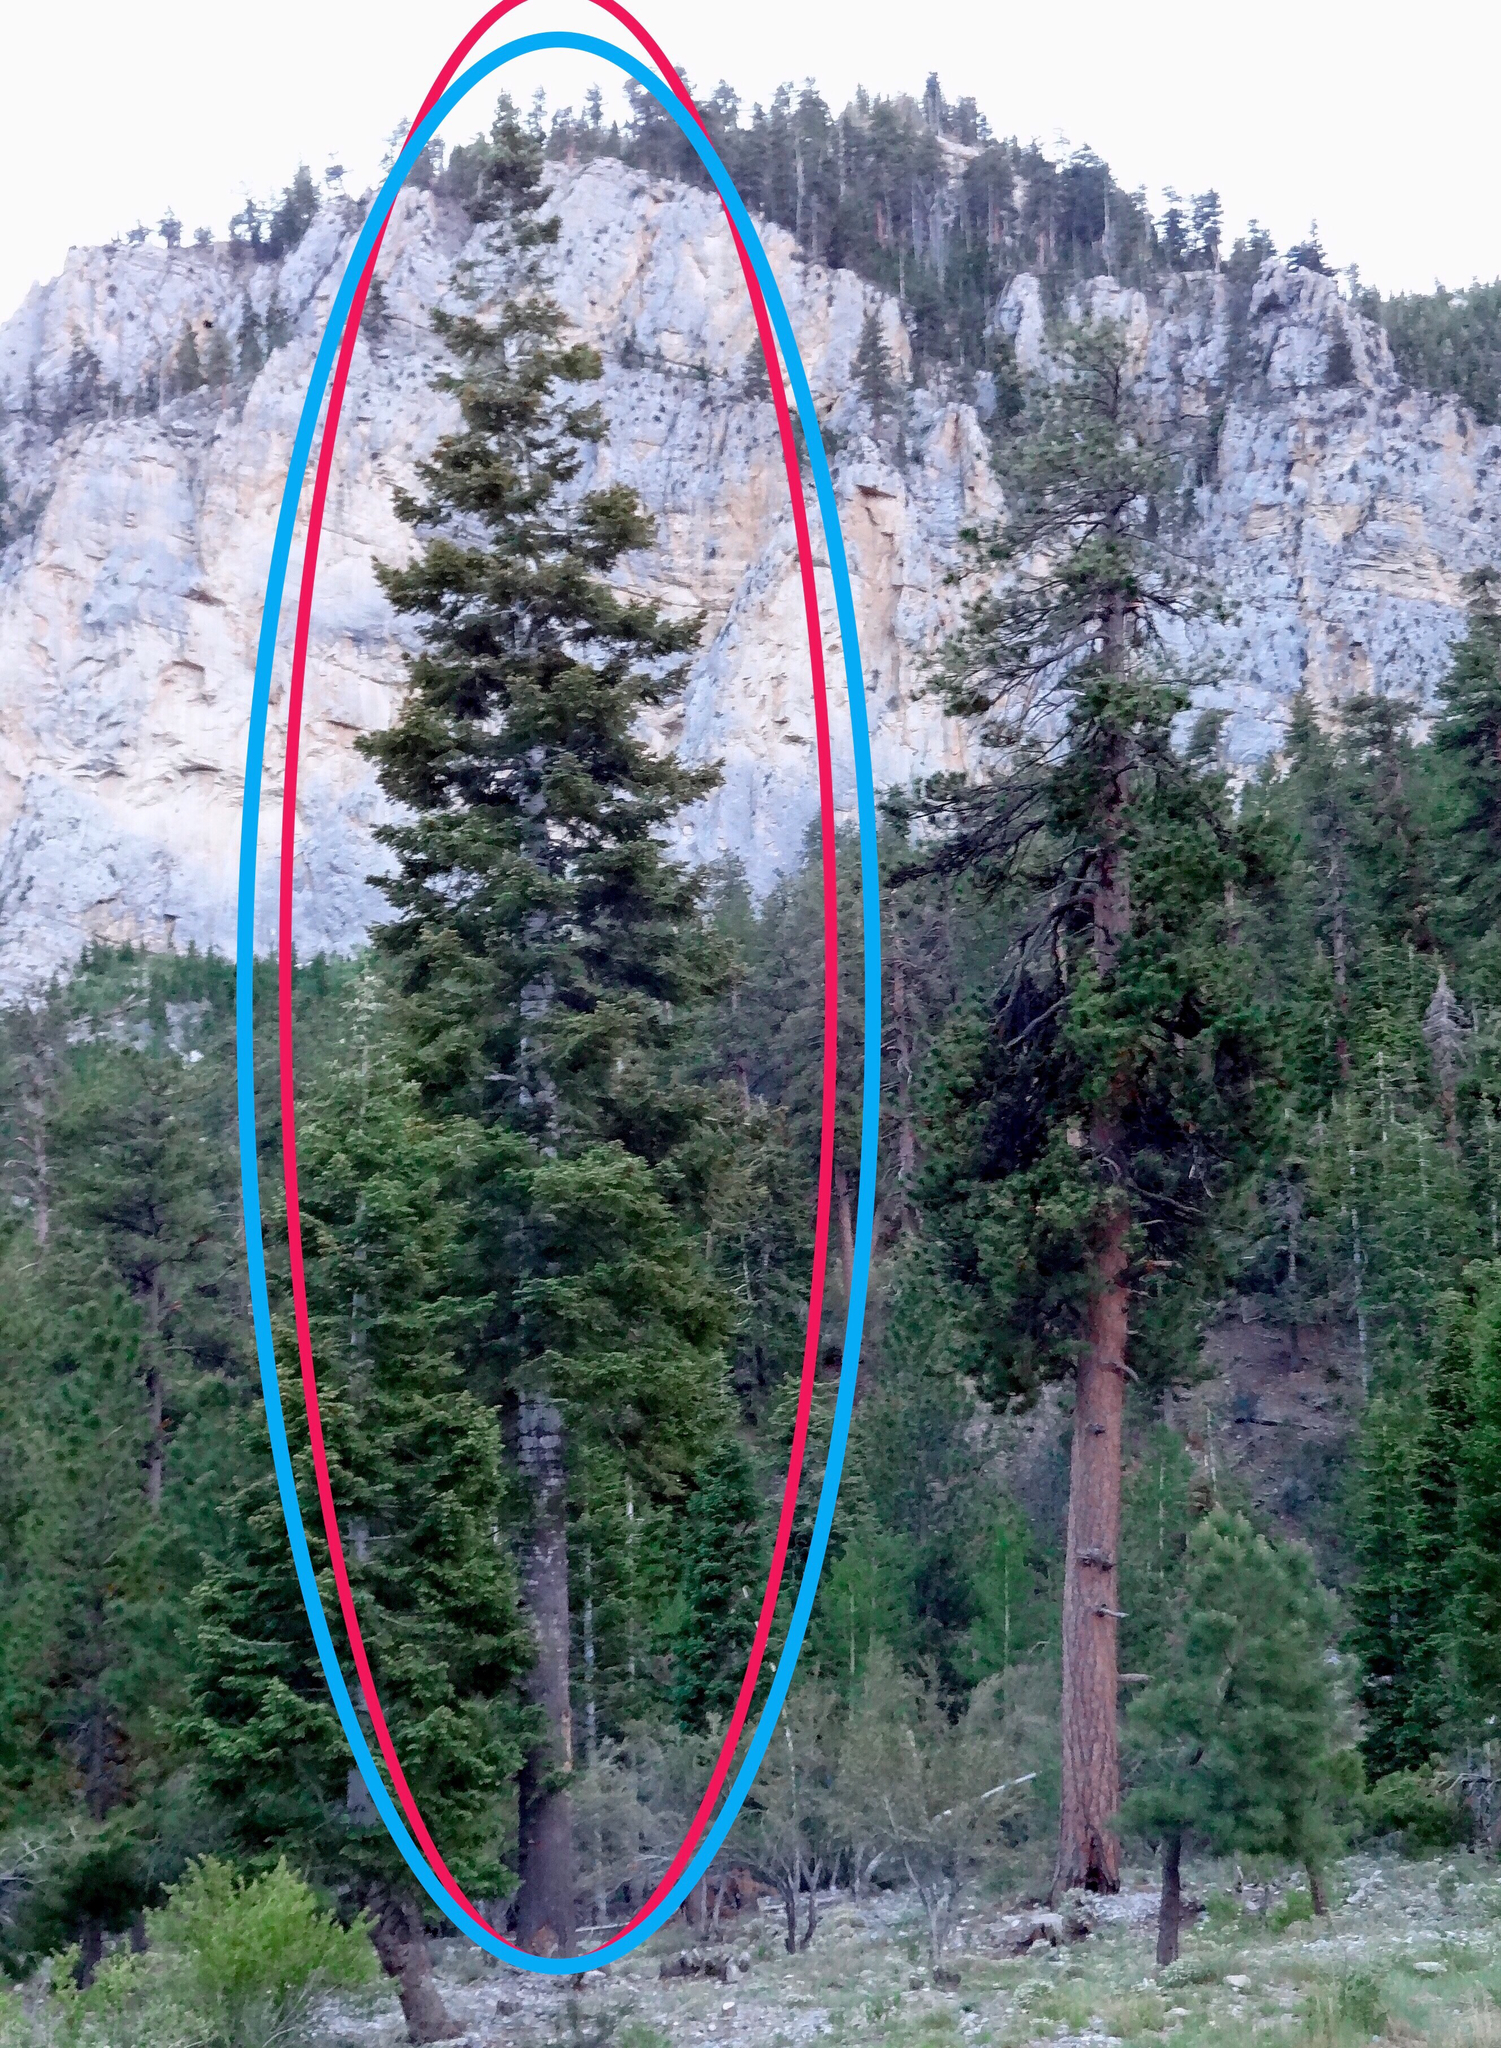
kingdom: Plantae
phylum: Tracheophyta
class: Pinopsida
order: Pinales
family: Pinaceae
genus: Abies
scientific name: Abies concolor
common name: Colorado fir
